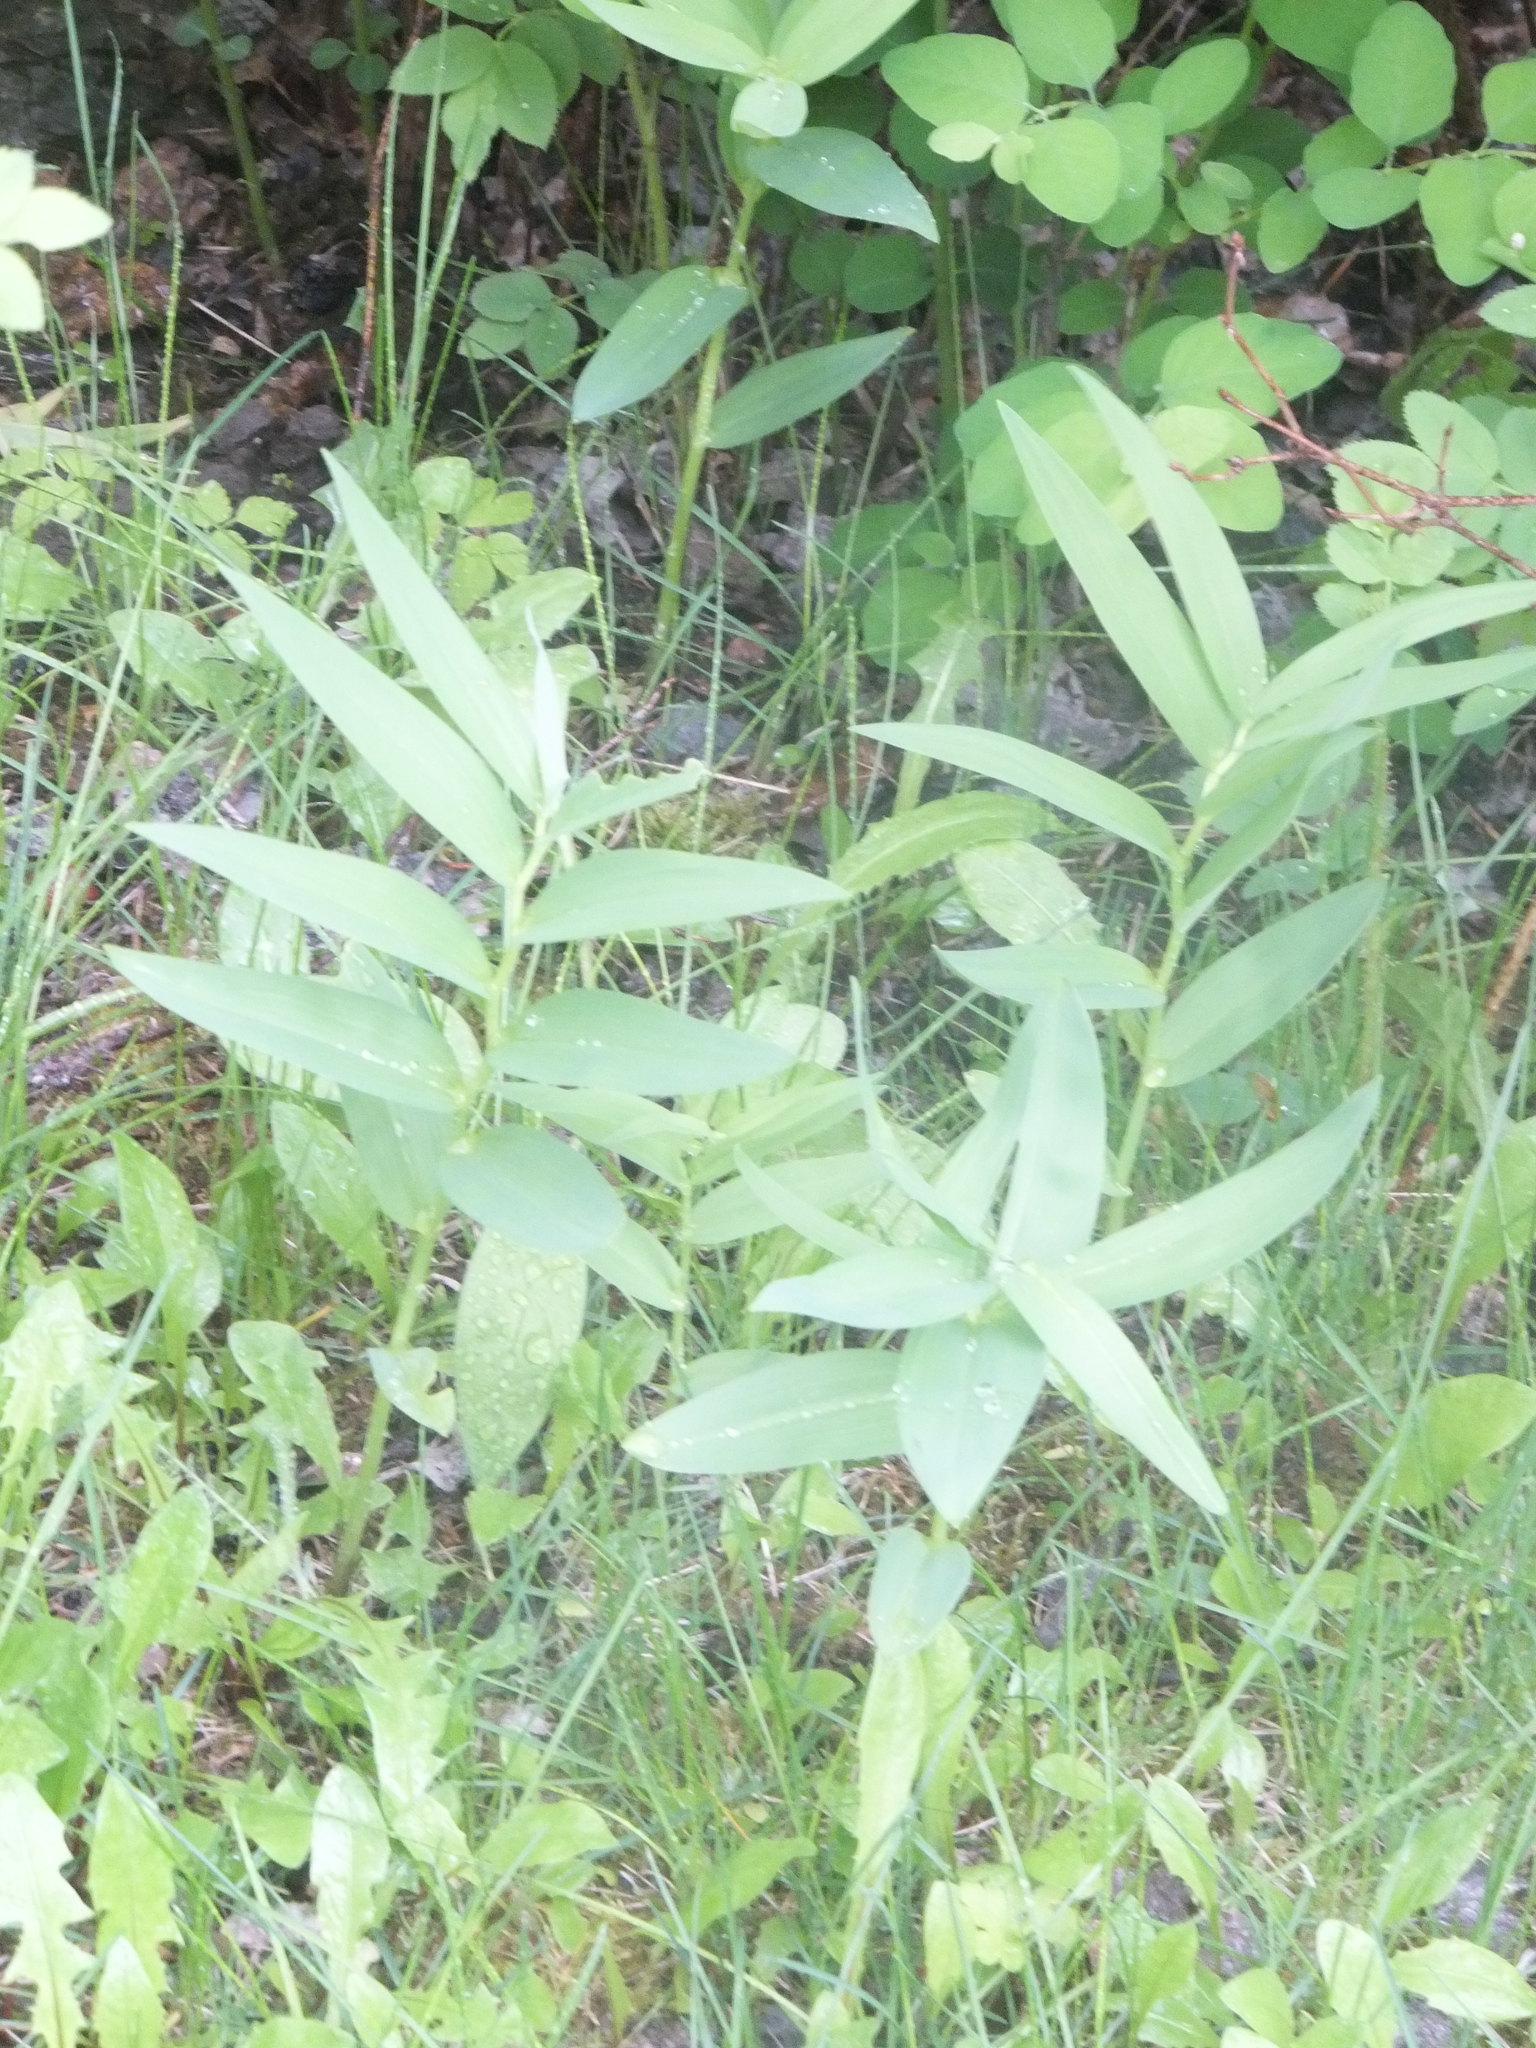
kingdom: Plantae
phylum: Tracheophyta
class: Liliopsida
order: Asparagales
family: Asparagaceae
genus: Maianthemum
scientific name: Maianthemum stellatum
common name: Little false solomon's seal
